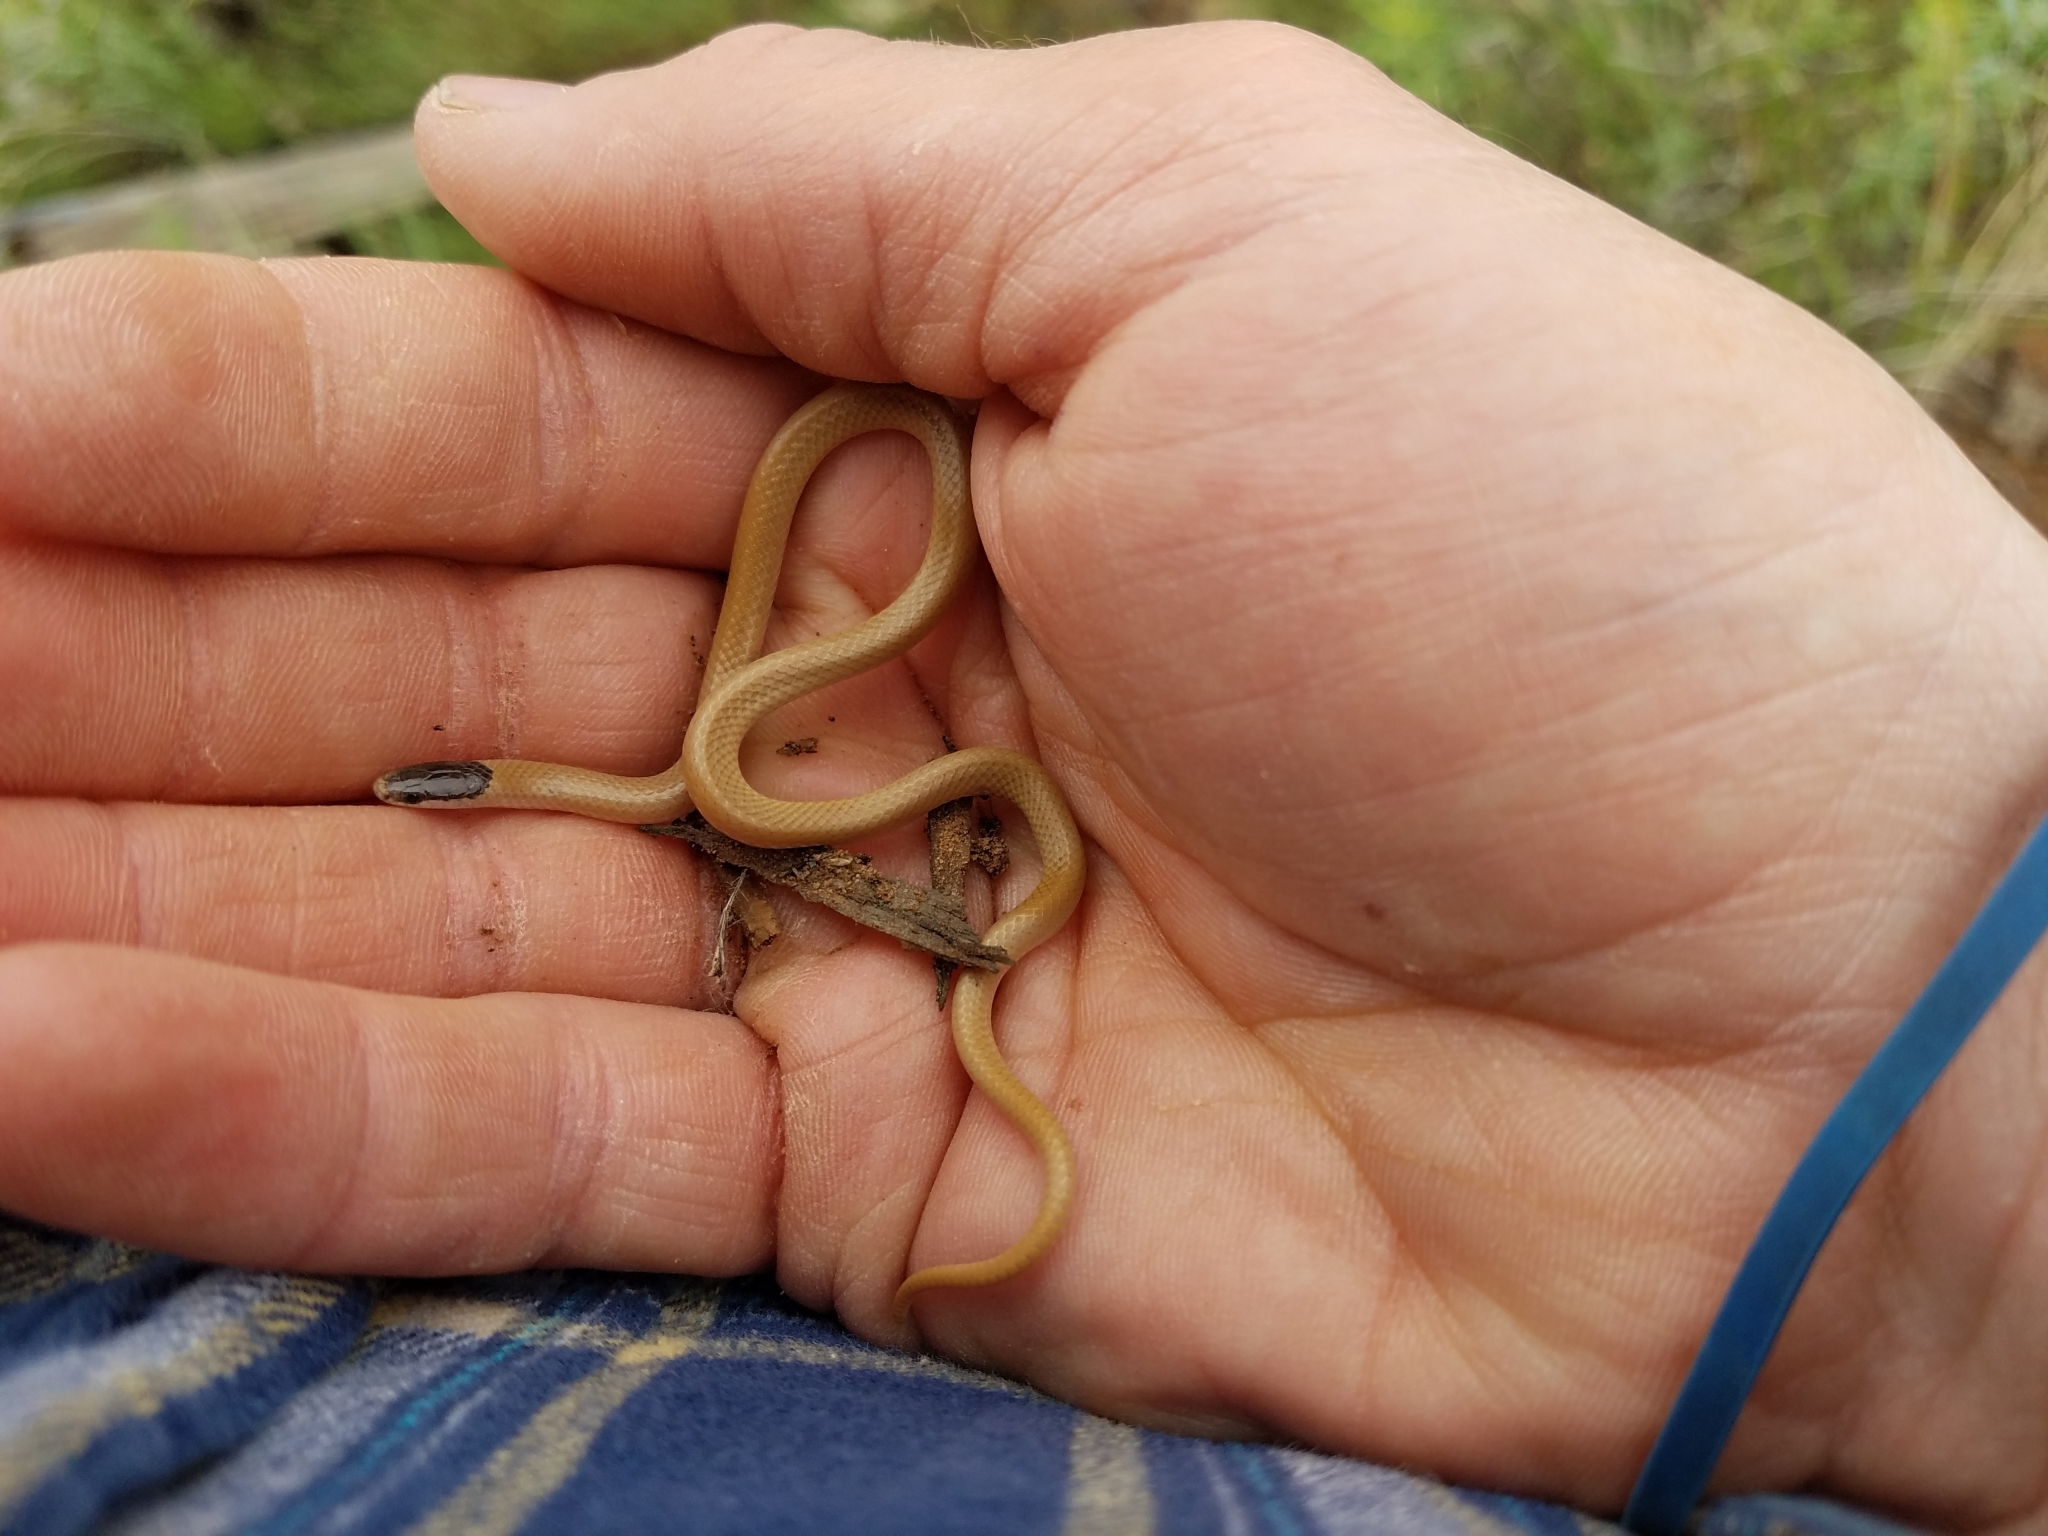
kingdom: Animalia
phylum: Chordata
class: Squamata
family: Colubridae
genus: Tantilla
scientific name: Tantilla nigriceps
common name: Plains blackhead snake
